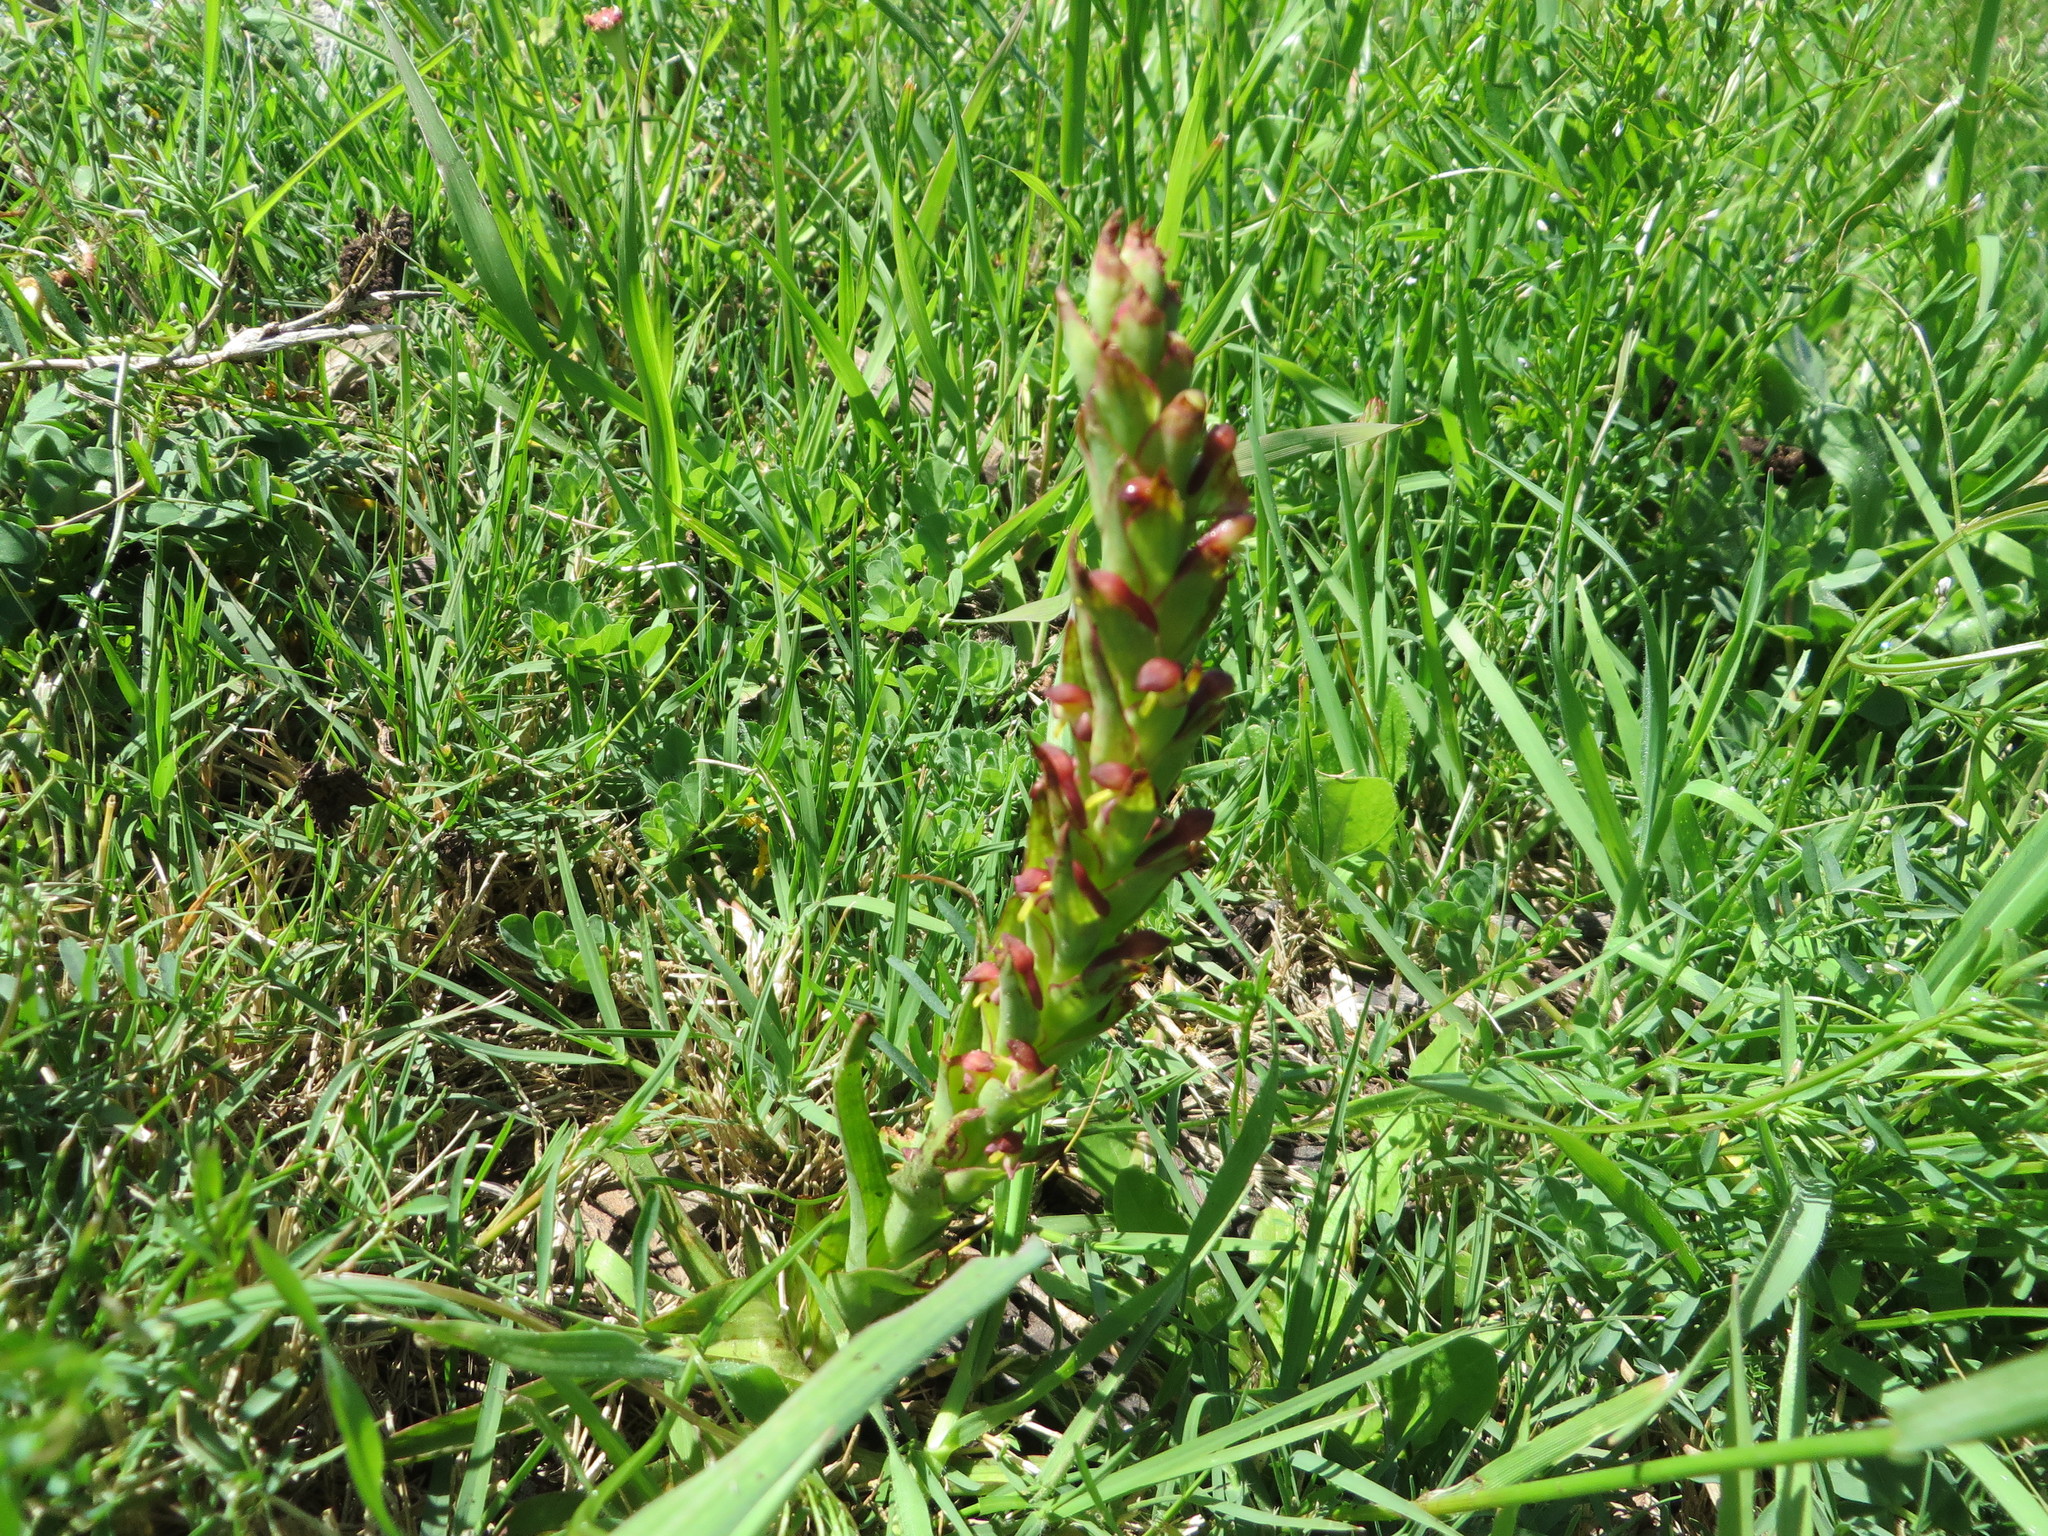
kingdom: Plantae
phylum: Tracheophyta
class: Liliopsida
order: Asparagales
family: Orchidaceae
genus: Disa
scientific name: Disa bracteata
